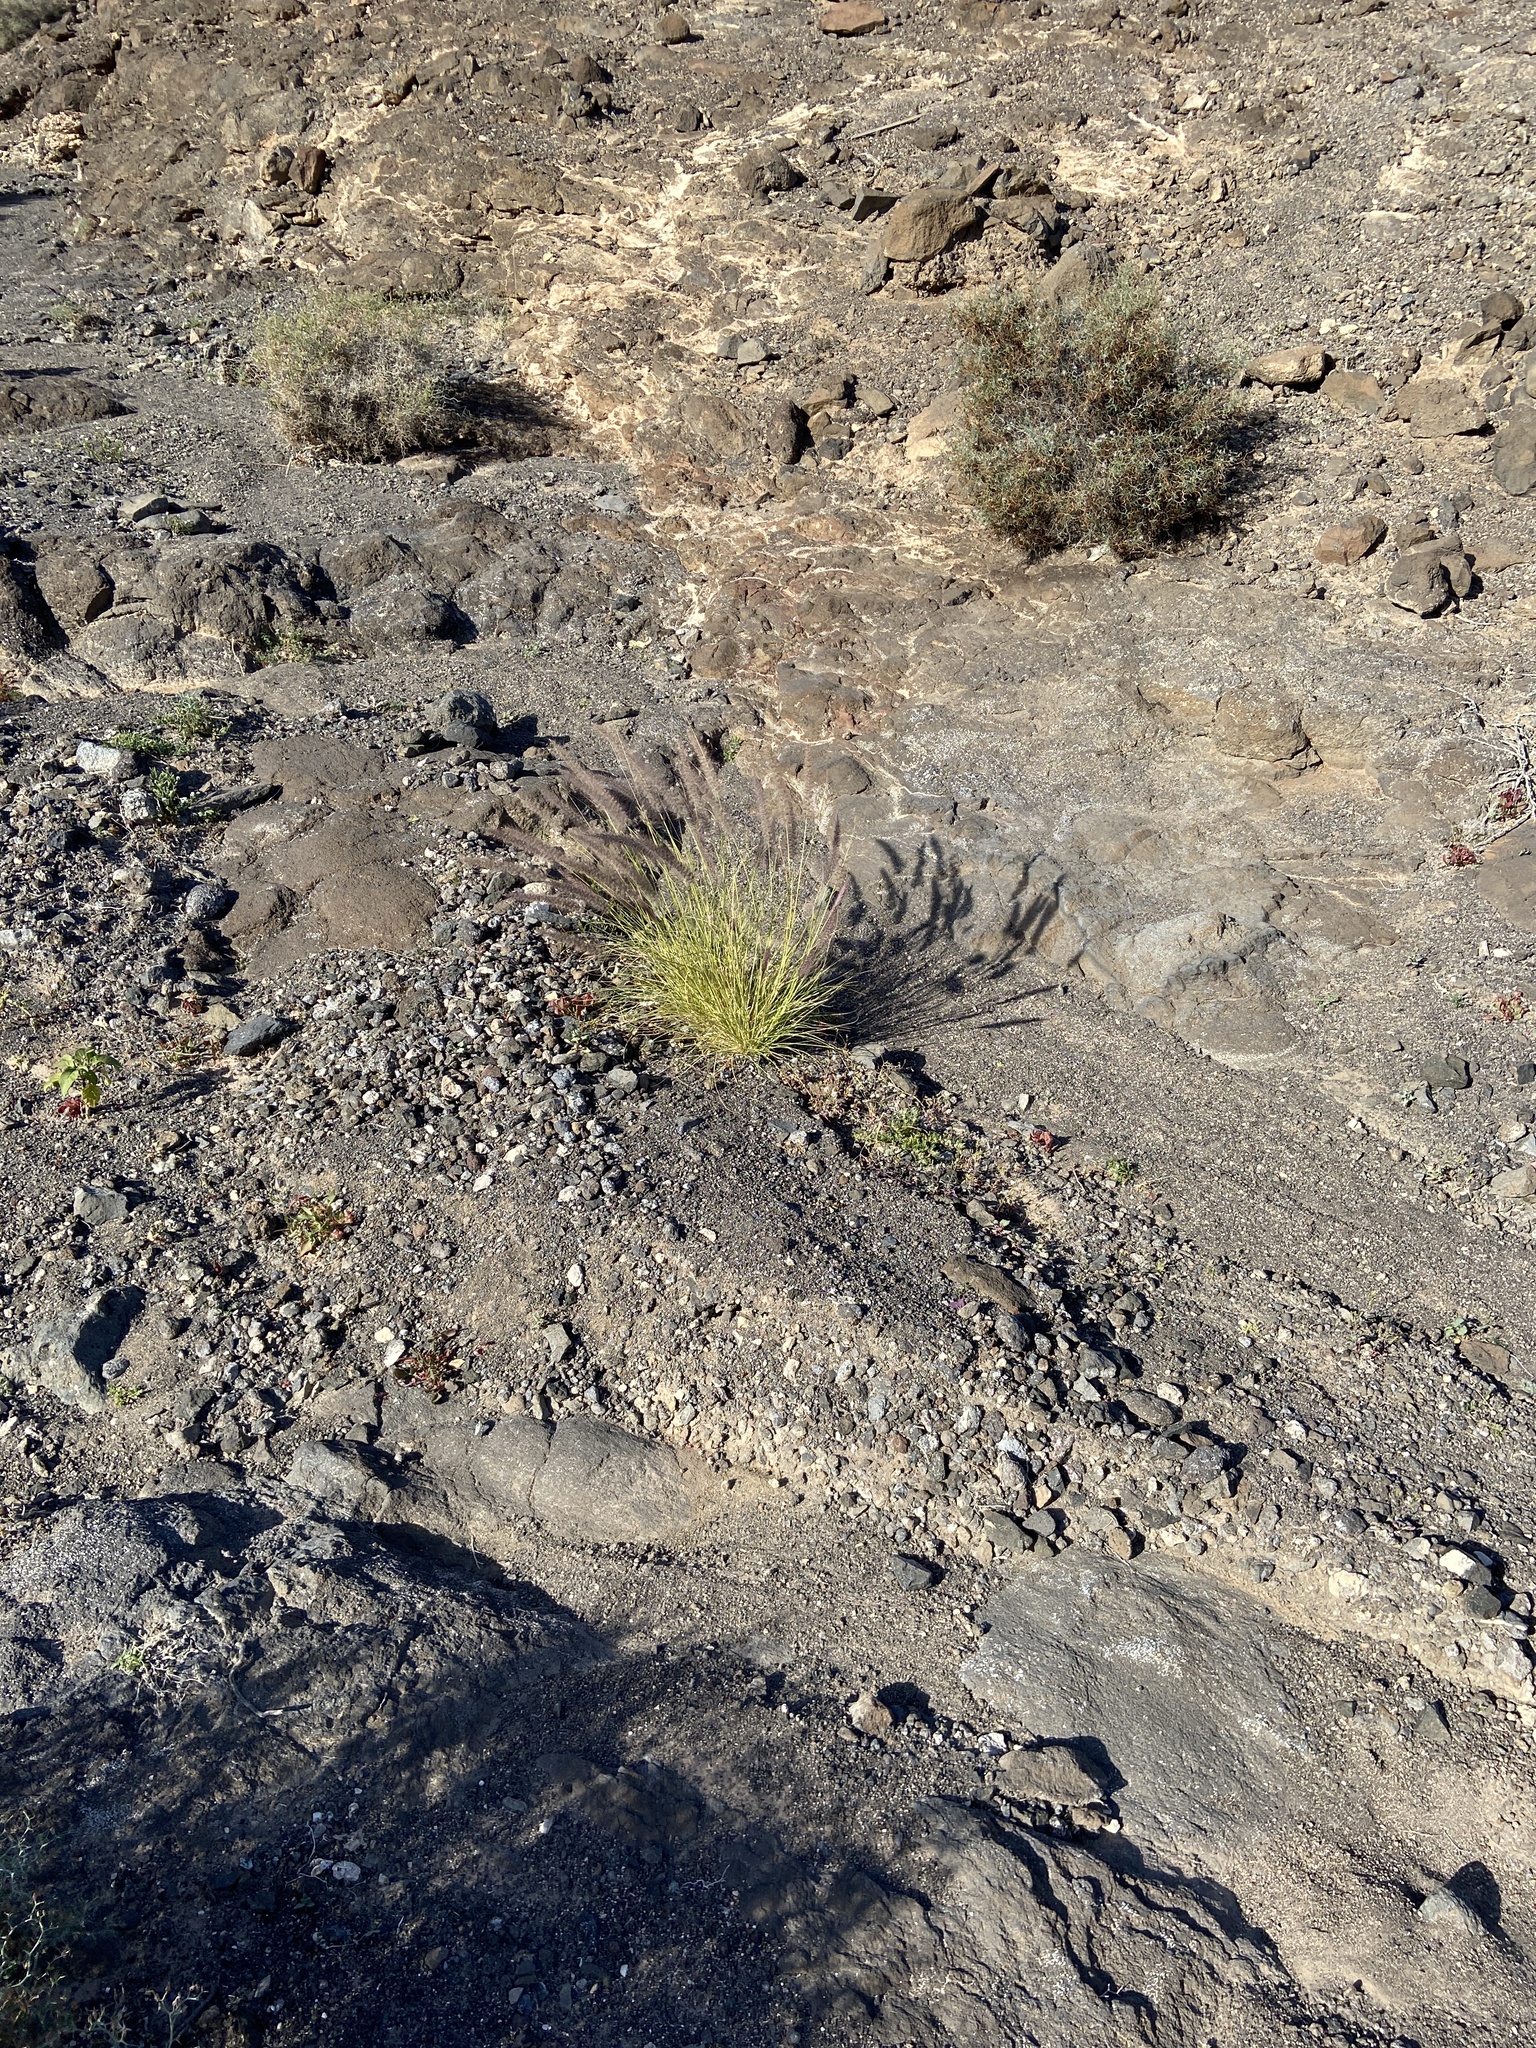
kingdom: Plantae
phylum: Tracheophyta
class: Liliopsida
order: Poales
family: Poaceae
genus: Cenchrus
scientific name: Cenchrus setaceus
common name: Crimson fountaingrass
